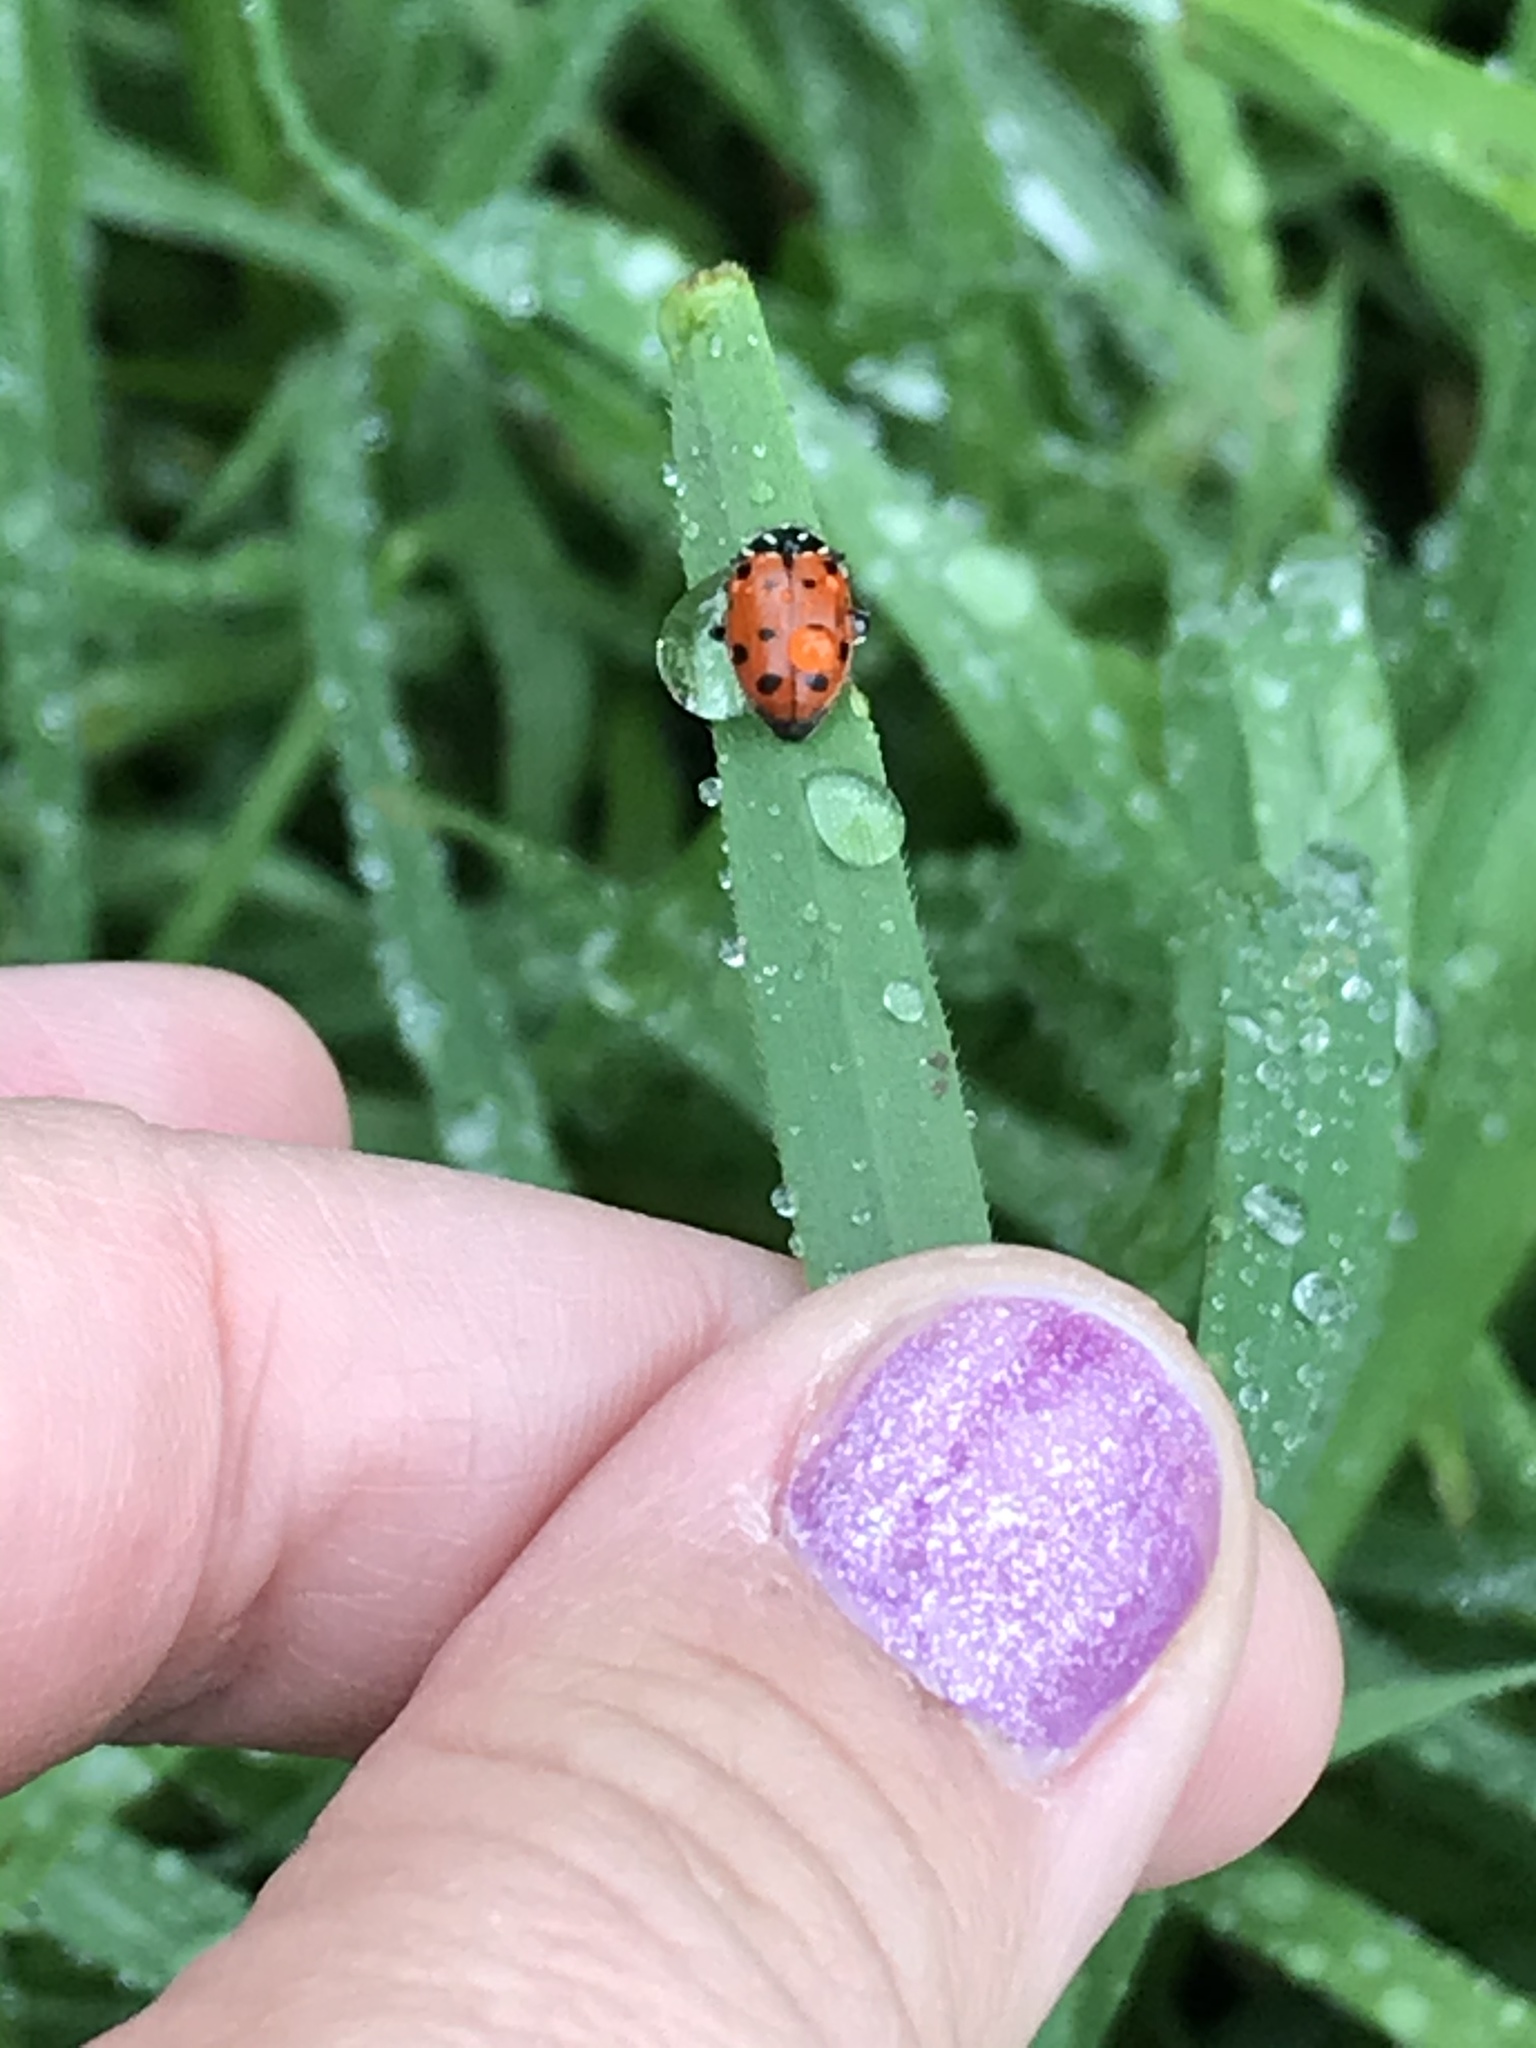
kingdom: Animalia
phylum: Arthropoda
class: Insecta
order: Coleoptera
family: Coccinellidae
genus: Hippodamia
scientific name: Hippodamia convergens
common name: Convergent lady beetle
